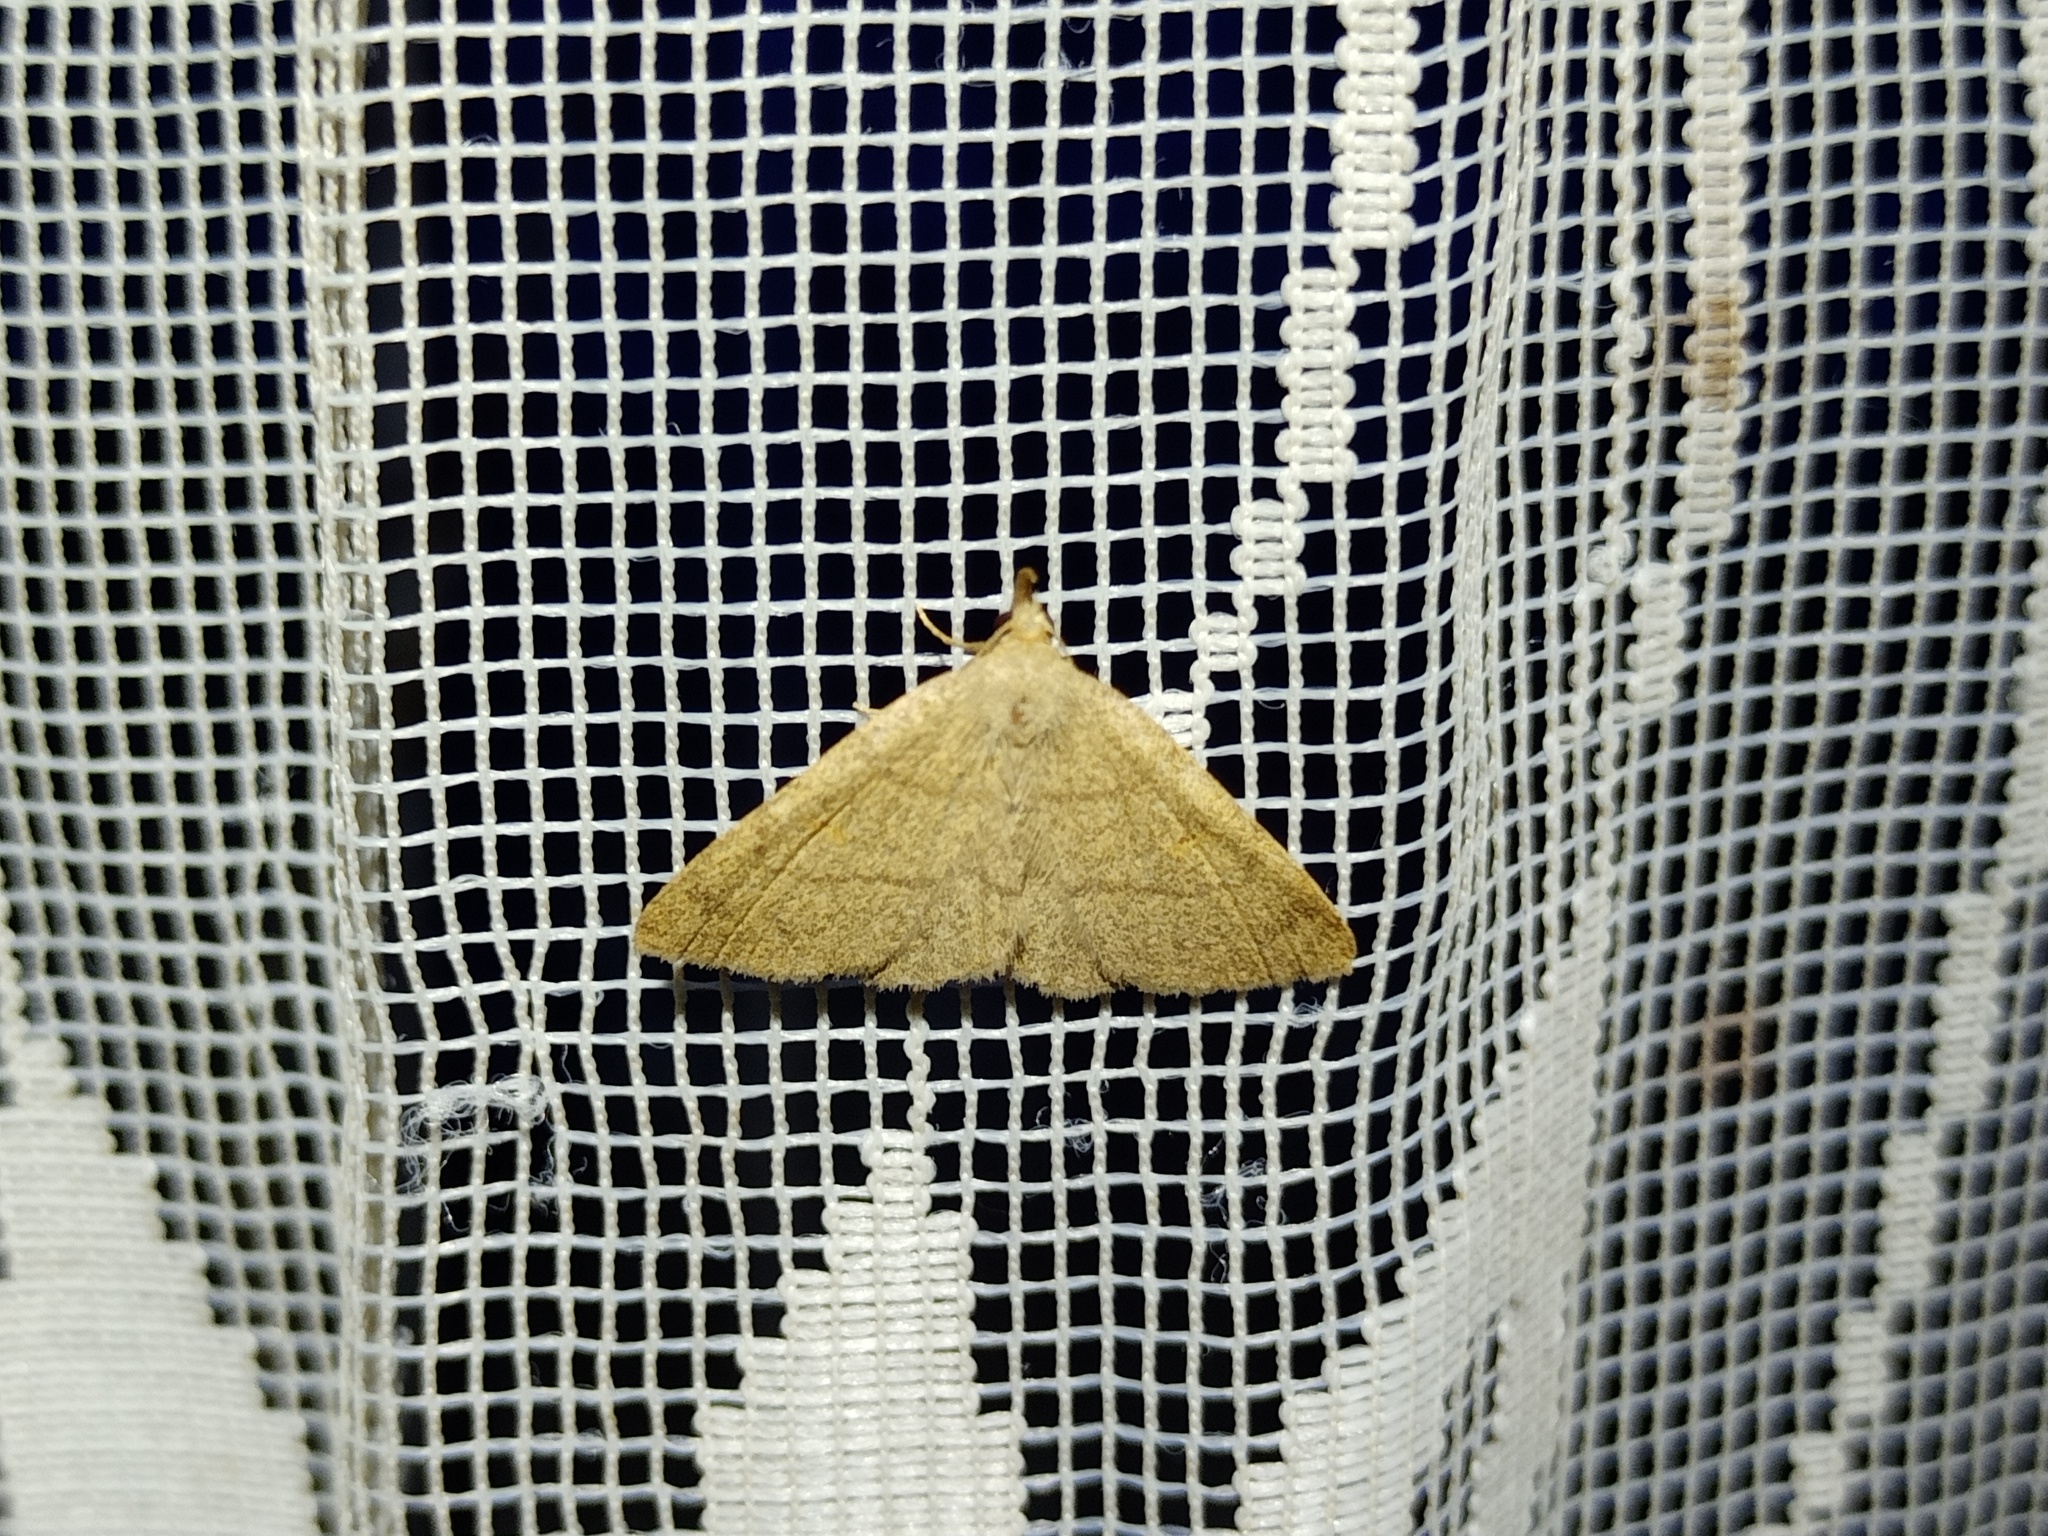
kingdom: Animalia
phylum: Arthropoda
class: Insecta
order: Lepidoptera
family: Erebidae
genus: Paracolax
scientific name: Paracolax tristalis
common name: Clay fan-foot
